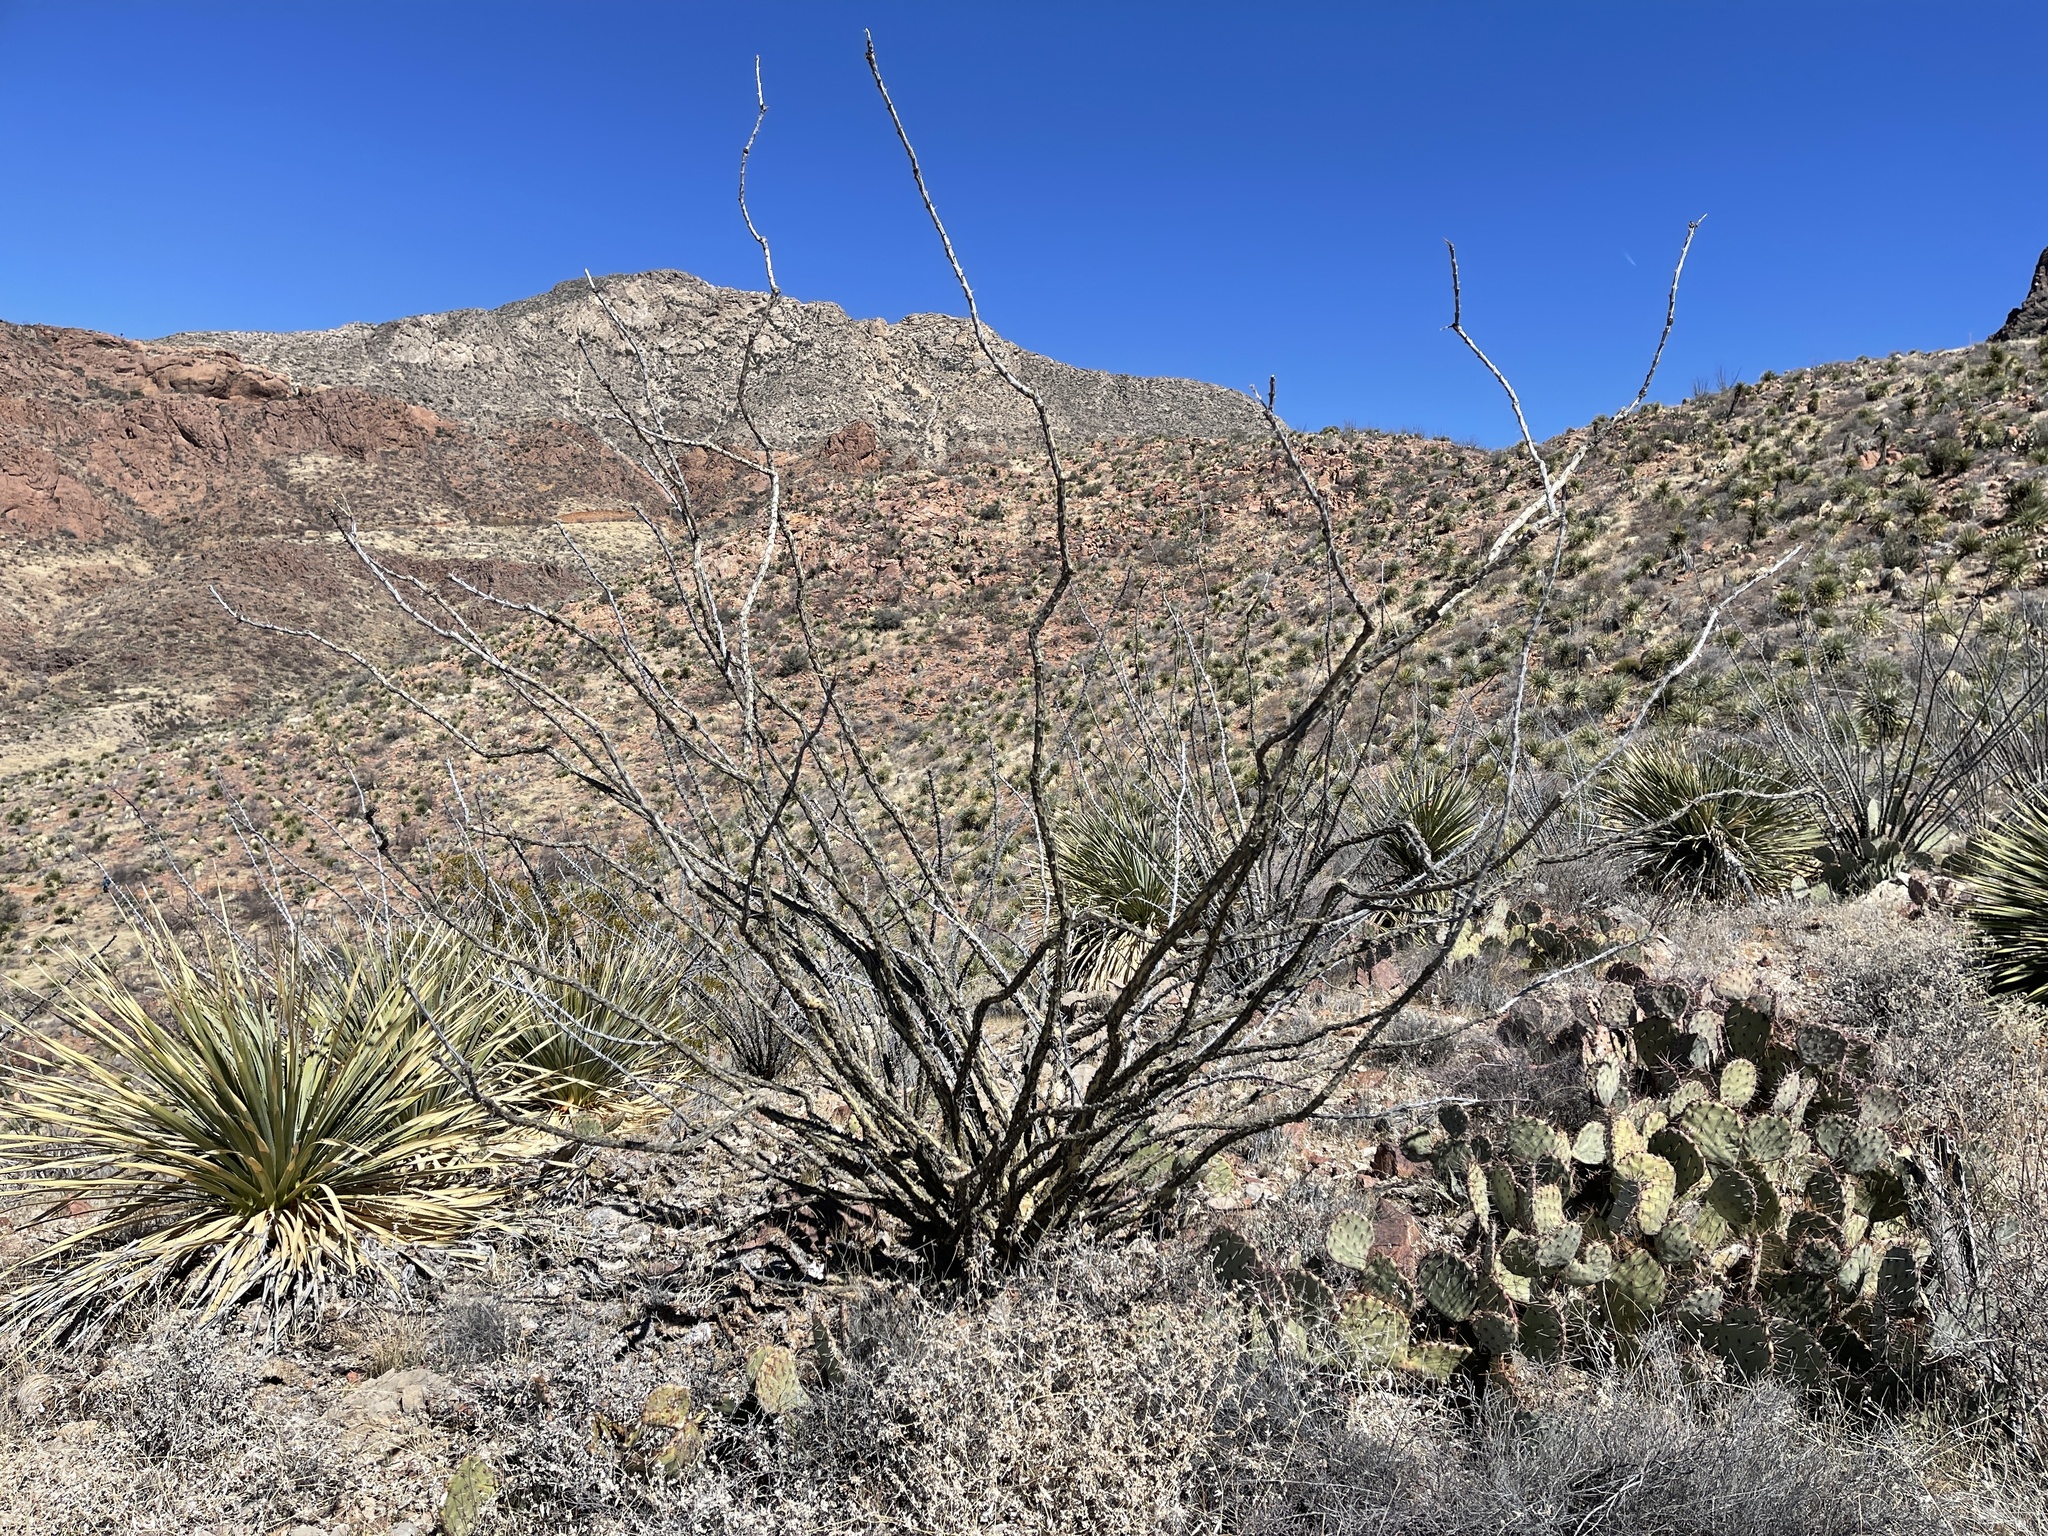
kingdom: Plantae
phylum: Tracheophyta
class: Magnoliopsida
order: Ericales
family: Fouquieriaceae
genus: Fouquieria
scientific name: Fouquieria splendens
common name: Vine-cactus
